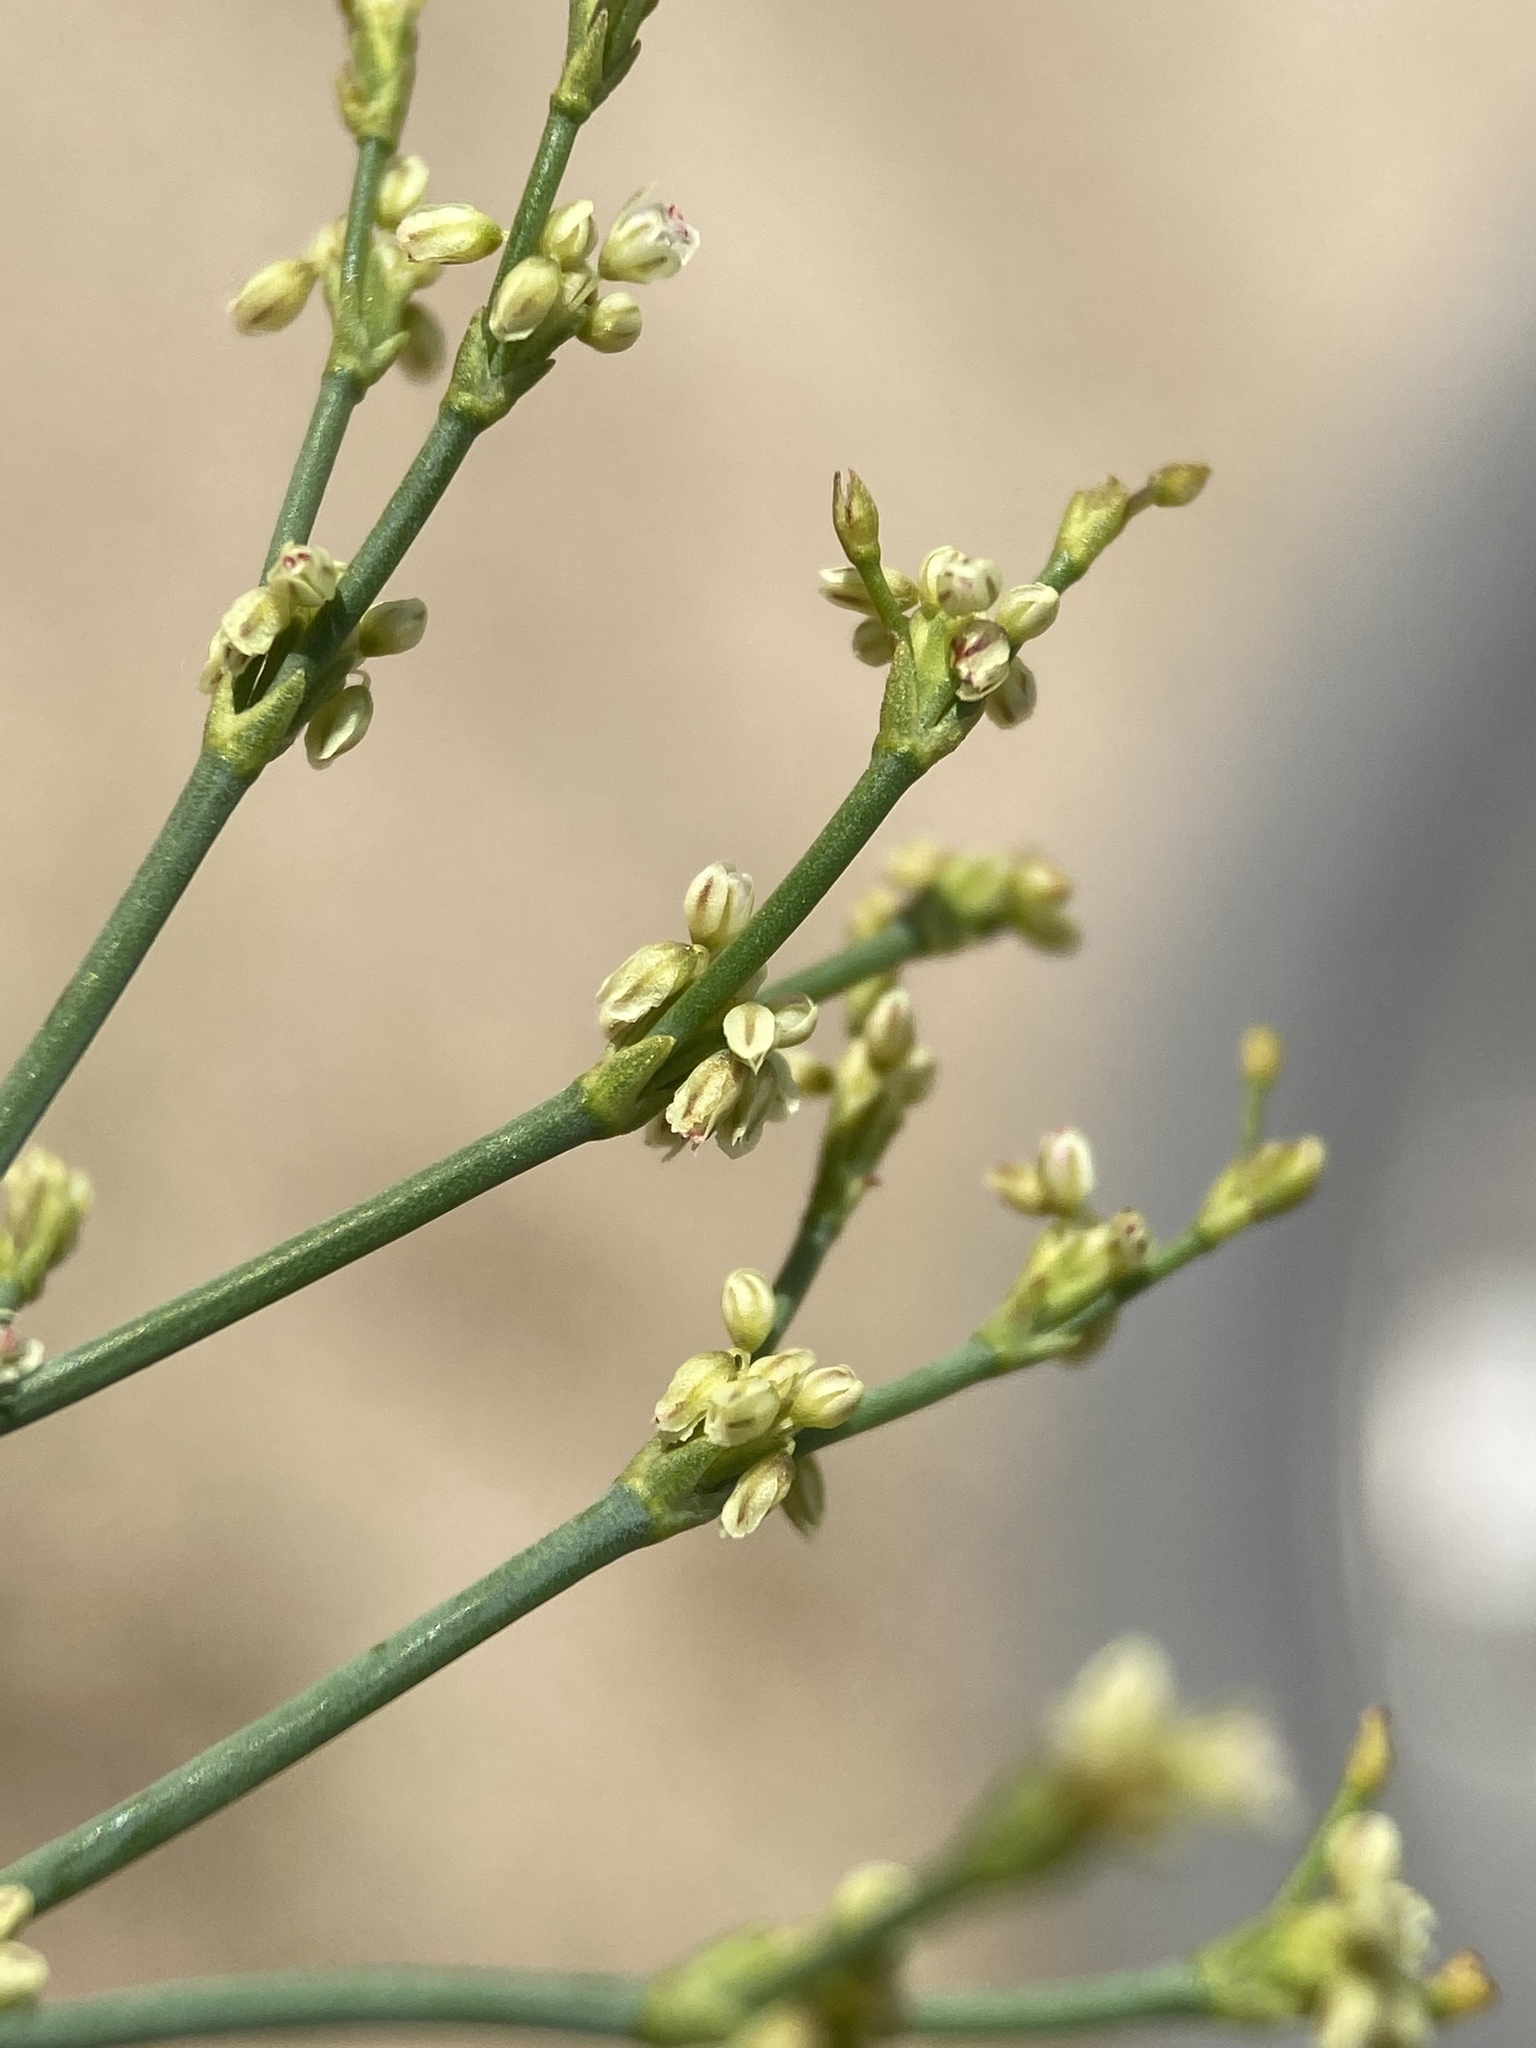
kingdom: Plantae
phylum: Tracheophyta
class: Magnoliopsida
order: Caryophyllales
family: Polygonaceae
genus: Eriogonum
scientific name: Eriogonum brachyanthum
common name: Short-flower wild buckwheat
